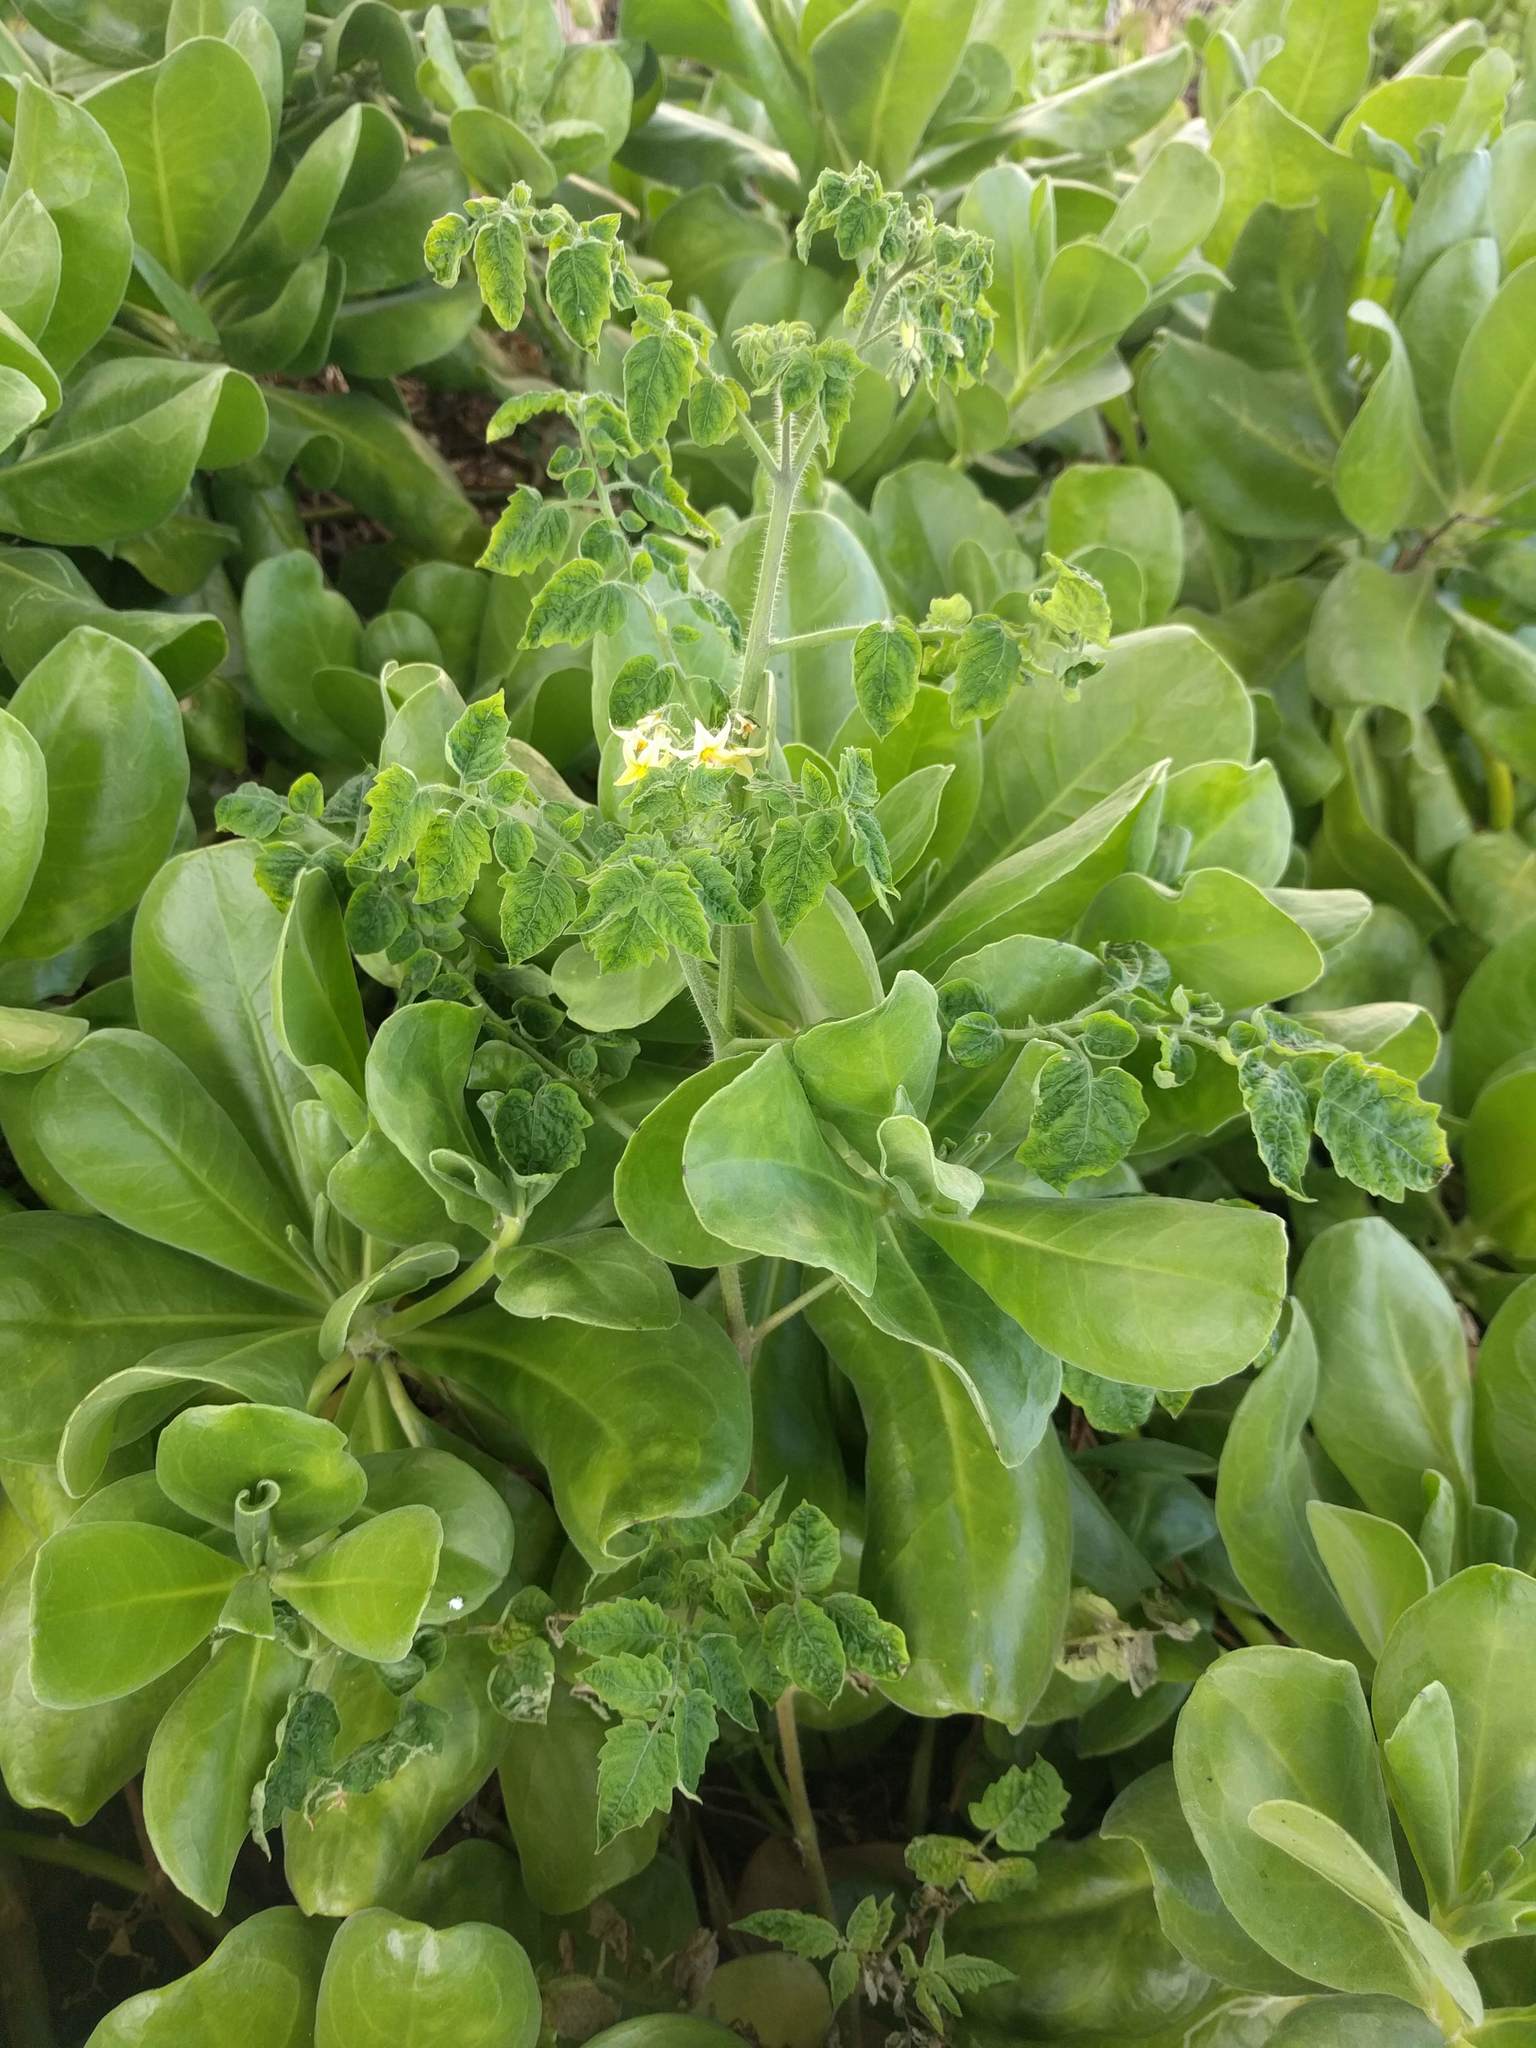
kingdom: Plantae
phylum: Tracheophyta
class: Magnoliopsida
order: Solanales
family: Solanaceae
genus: Solanum
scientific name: Solanum lycopersicum
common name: Garden tomato
